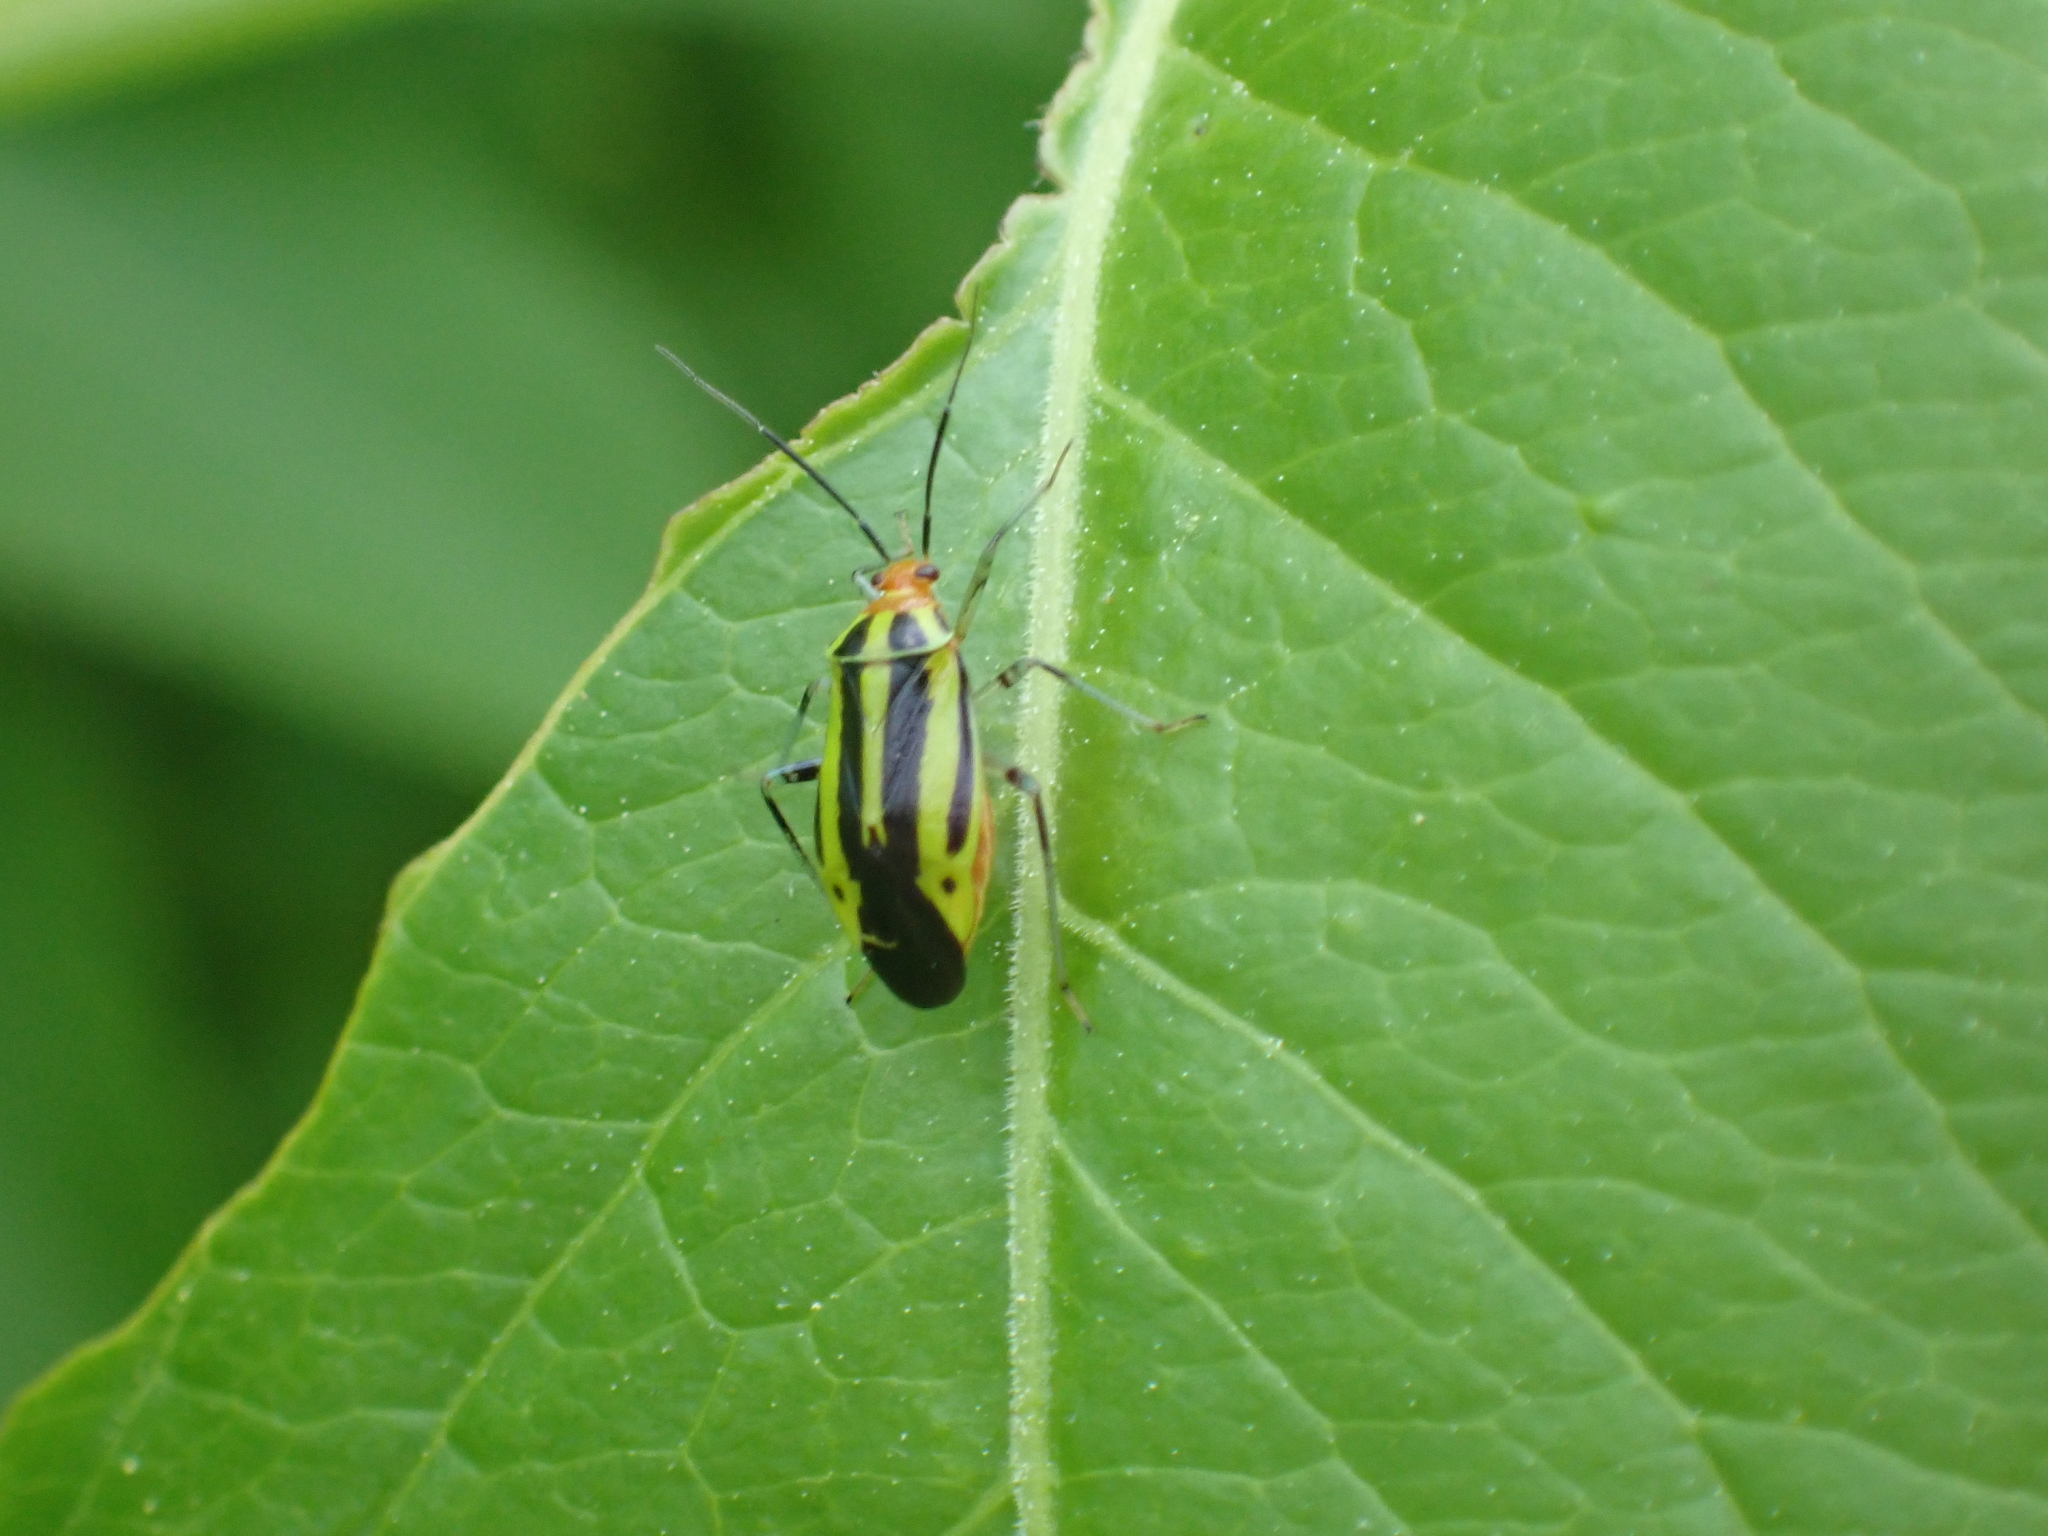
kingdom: Animalia
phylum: Arthropoda
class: Insecta
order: Hemiptera
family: Miridae
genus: Poecilocapsus
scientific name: Poecilocapsus lineatus
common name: Four-lined plant bug
